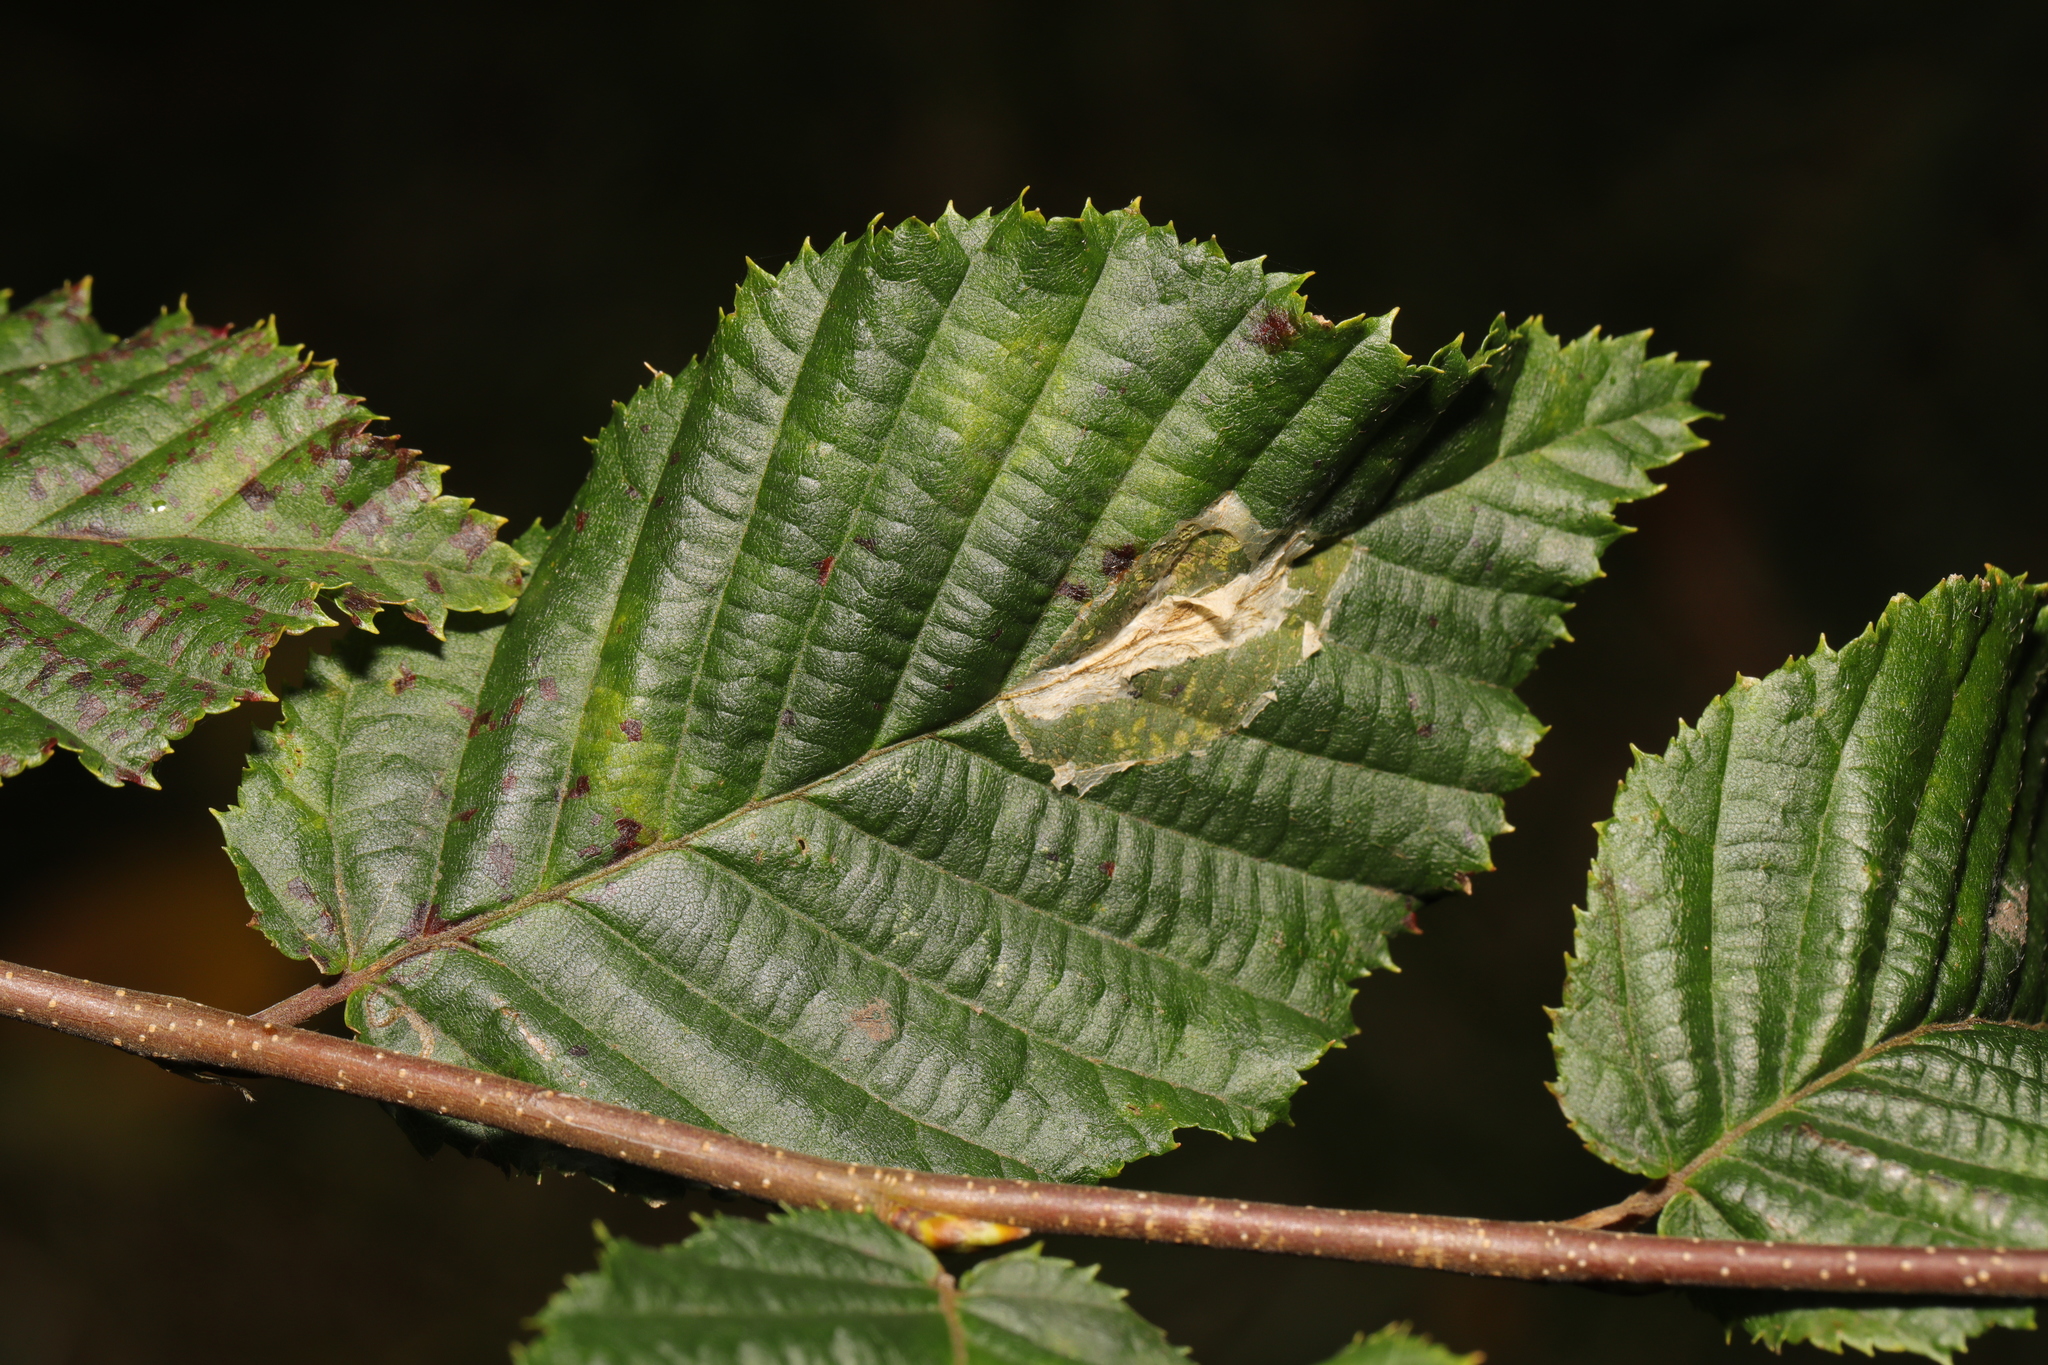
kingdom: Animalia
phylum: Arthropoda
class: Insecta
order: Lepidoptera
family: Gracillariidae
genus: Phyllonorycter
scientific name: Phyllonorycter esperella
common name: Dark hornbeam midget
